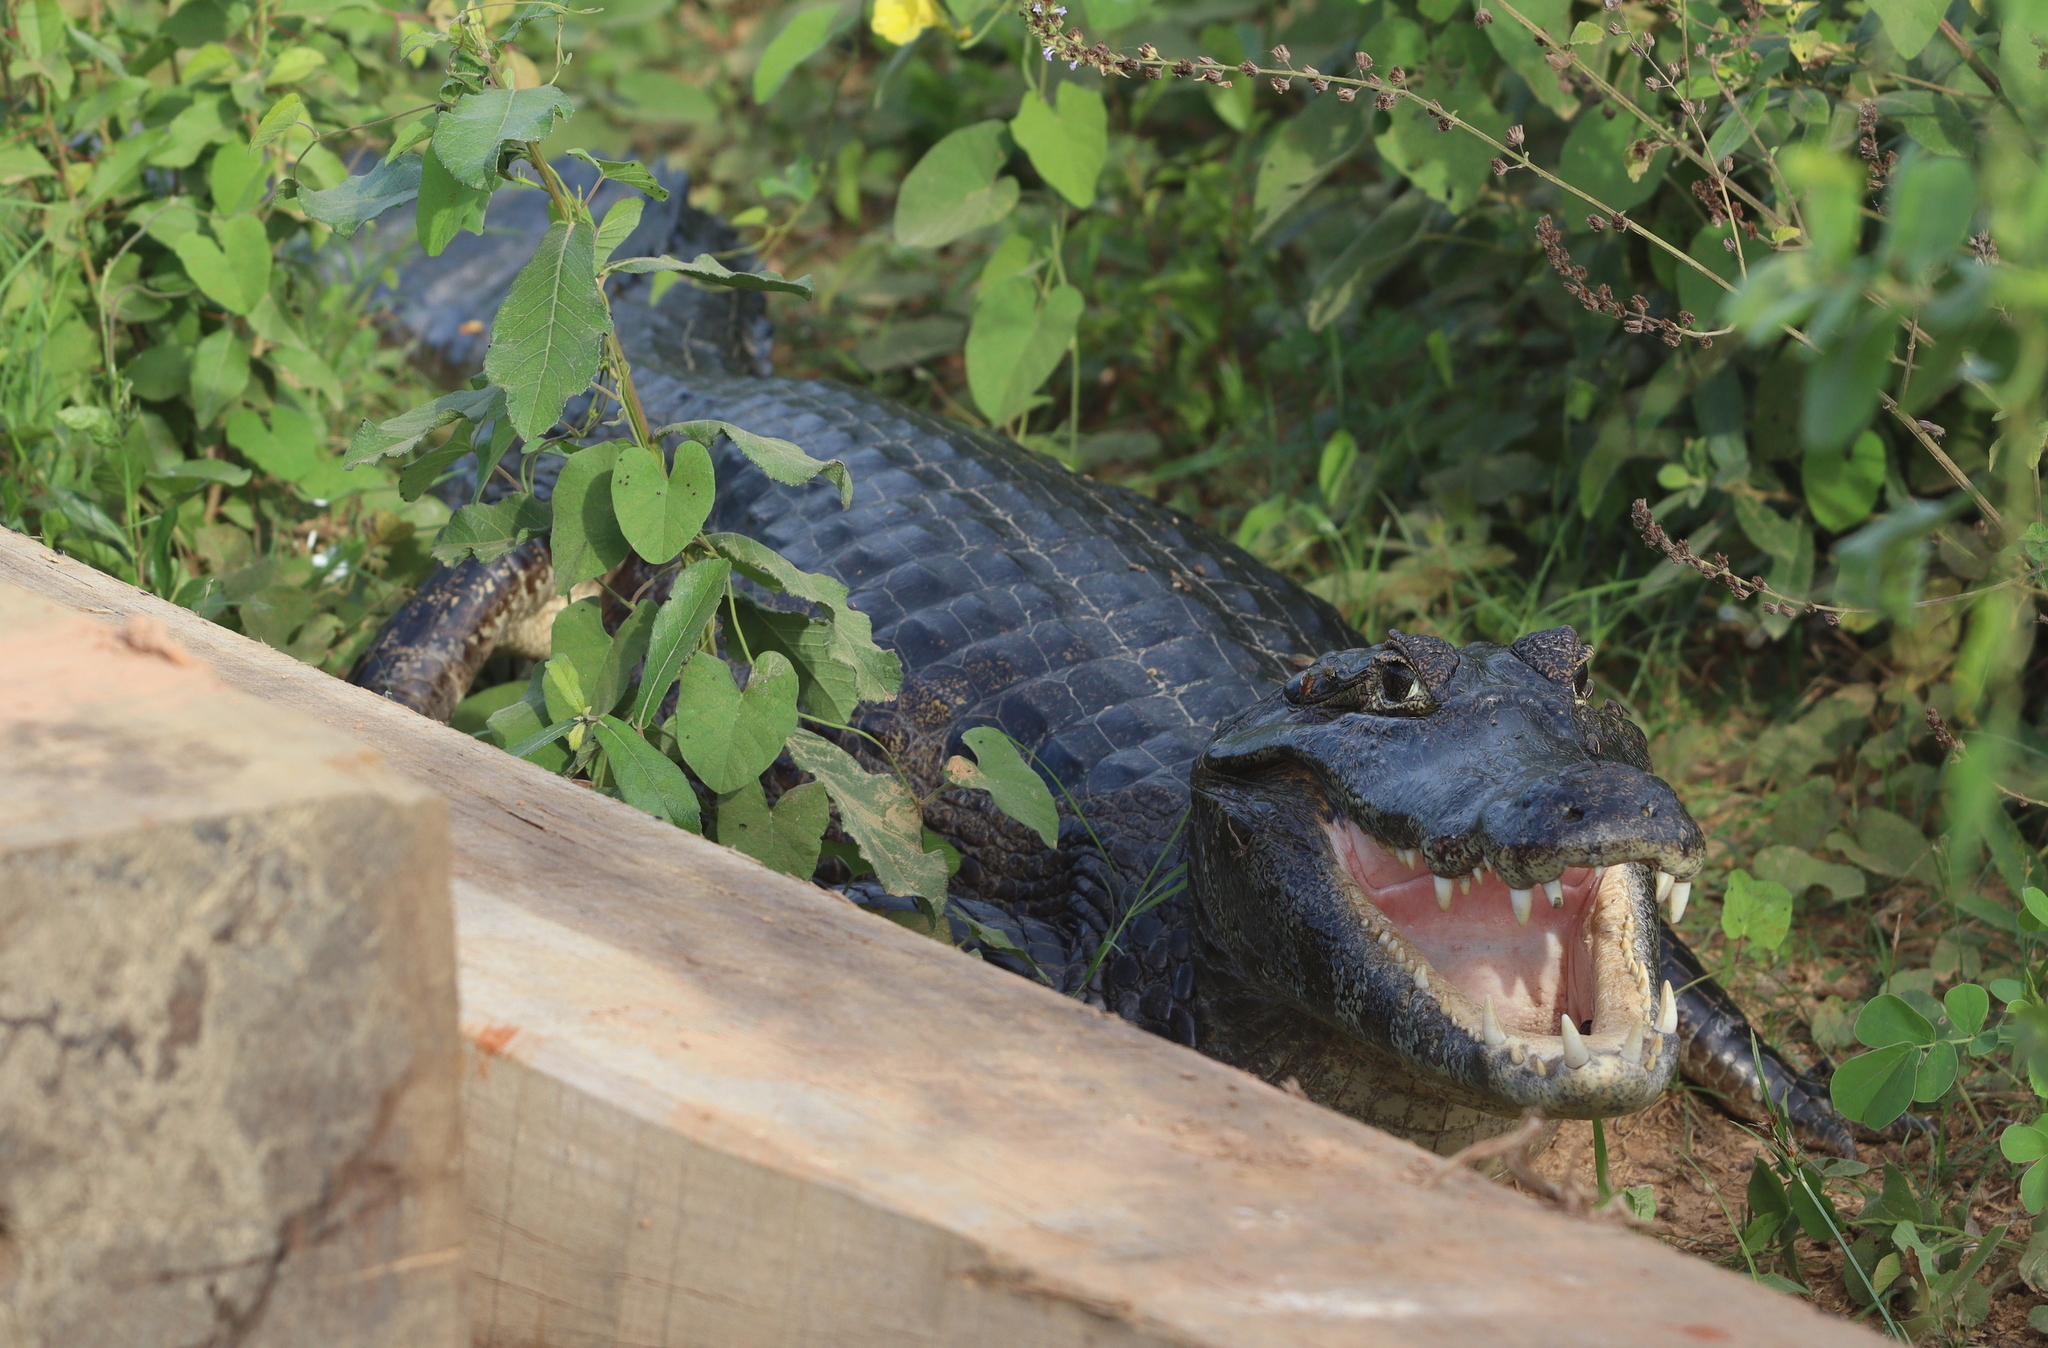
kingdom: Animalia
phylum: Chordata
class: Crocodylia
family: Alligatoridae
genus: Caiman
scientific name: Caiman yacare
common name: Yacare caiman
